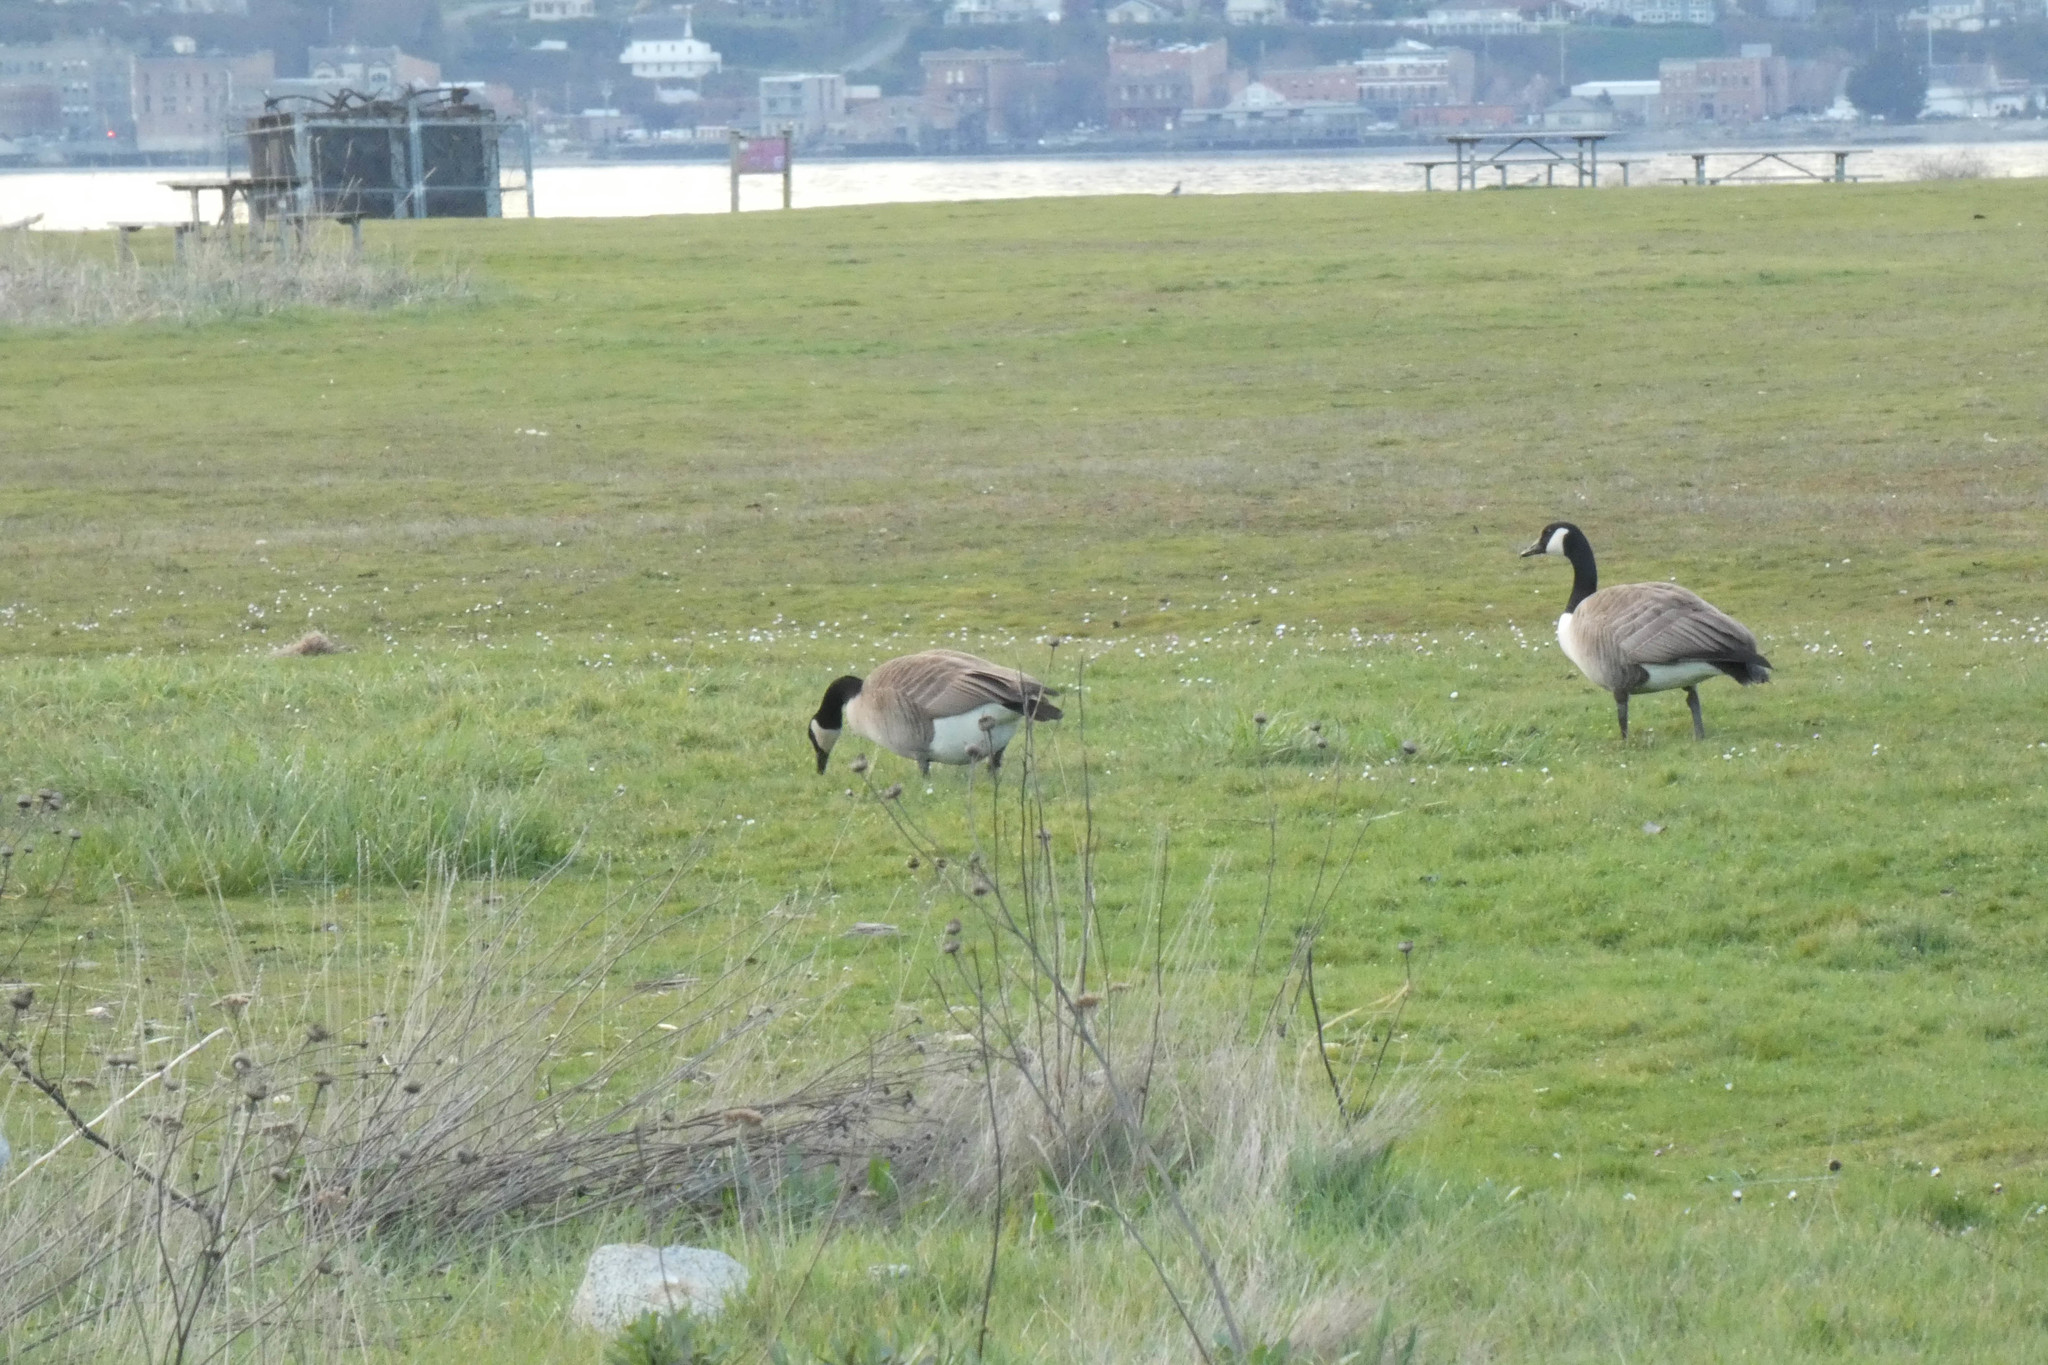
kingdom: Animalia
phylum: Chordata
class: Aves
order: Anseriformes
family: Anatidae
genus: Branta
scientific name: Branta canadensis
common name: Canada goose
